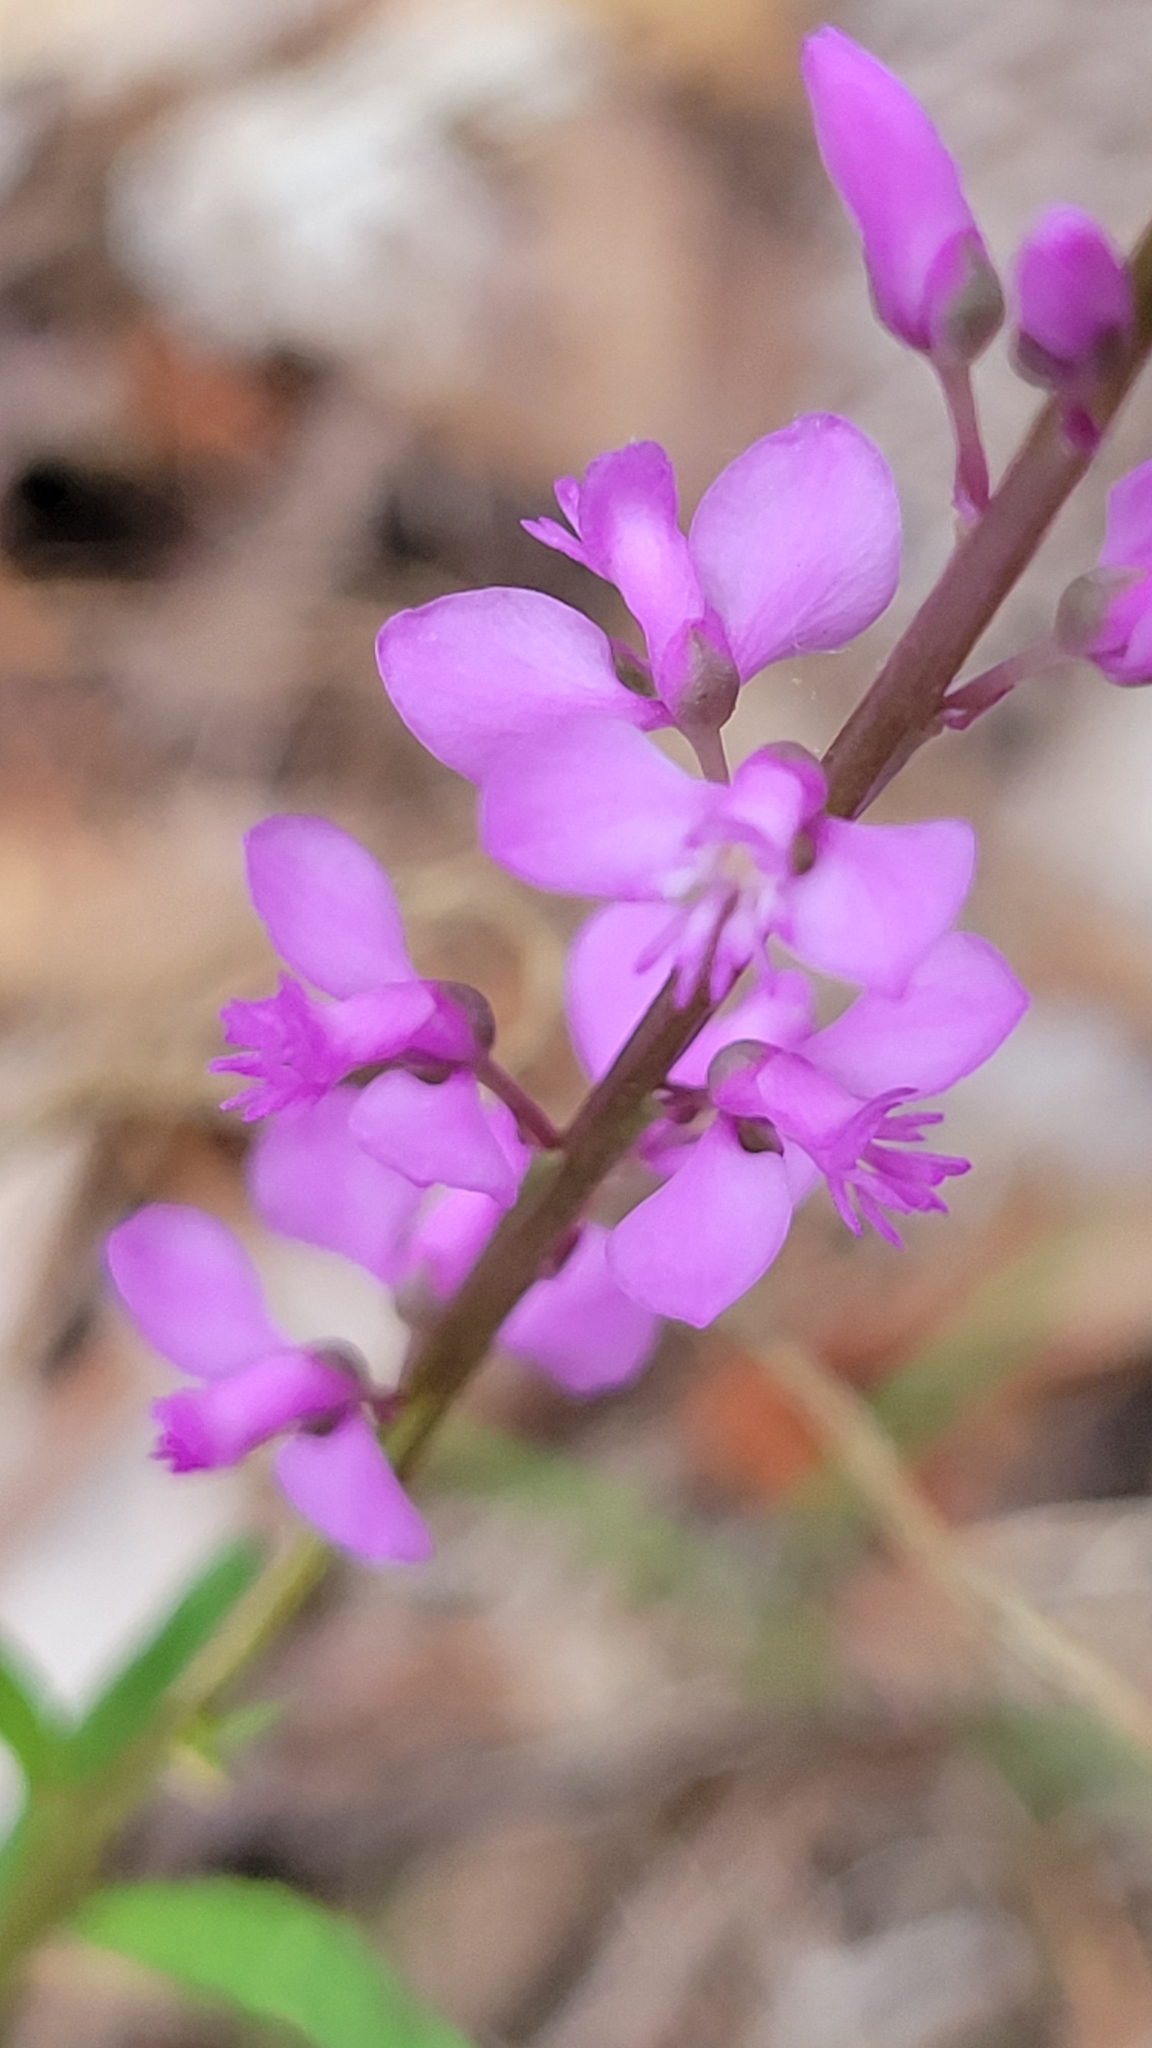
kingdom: Plantae
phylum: Tracheophyta
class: Magnoliopsida
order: Fabales
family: Polygalaceae
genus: Polygala
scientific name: Polygala polygama
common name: Bitter milkwort
